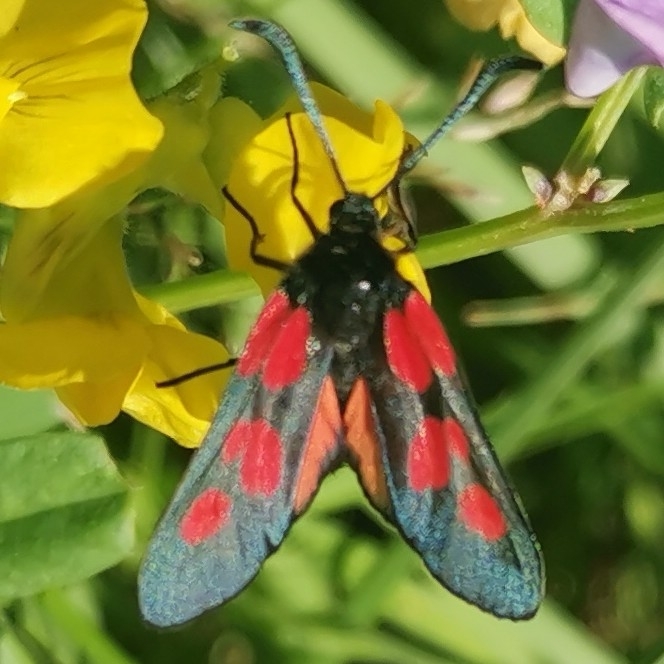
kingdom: Animalia
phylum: Arthropoda
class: Insecta
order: Lepidoptera
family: Zygaenidae
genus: Zygaena
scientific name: Zygaena viciae
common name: New forest burnet
